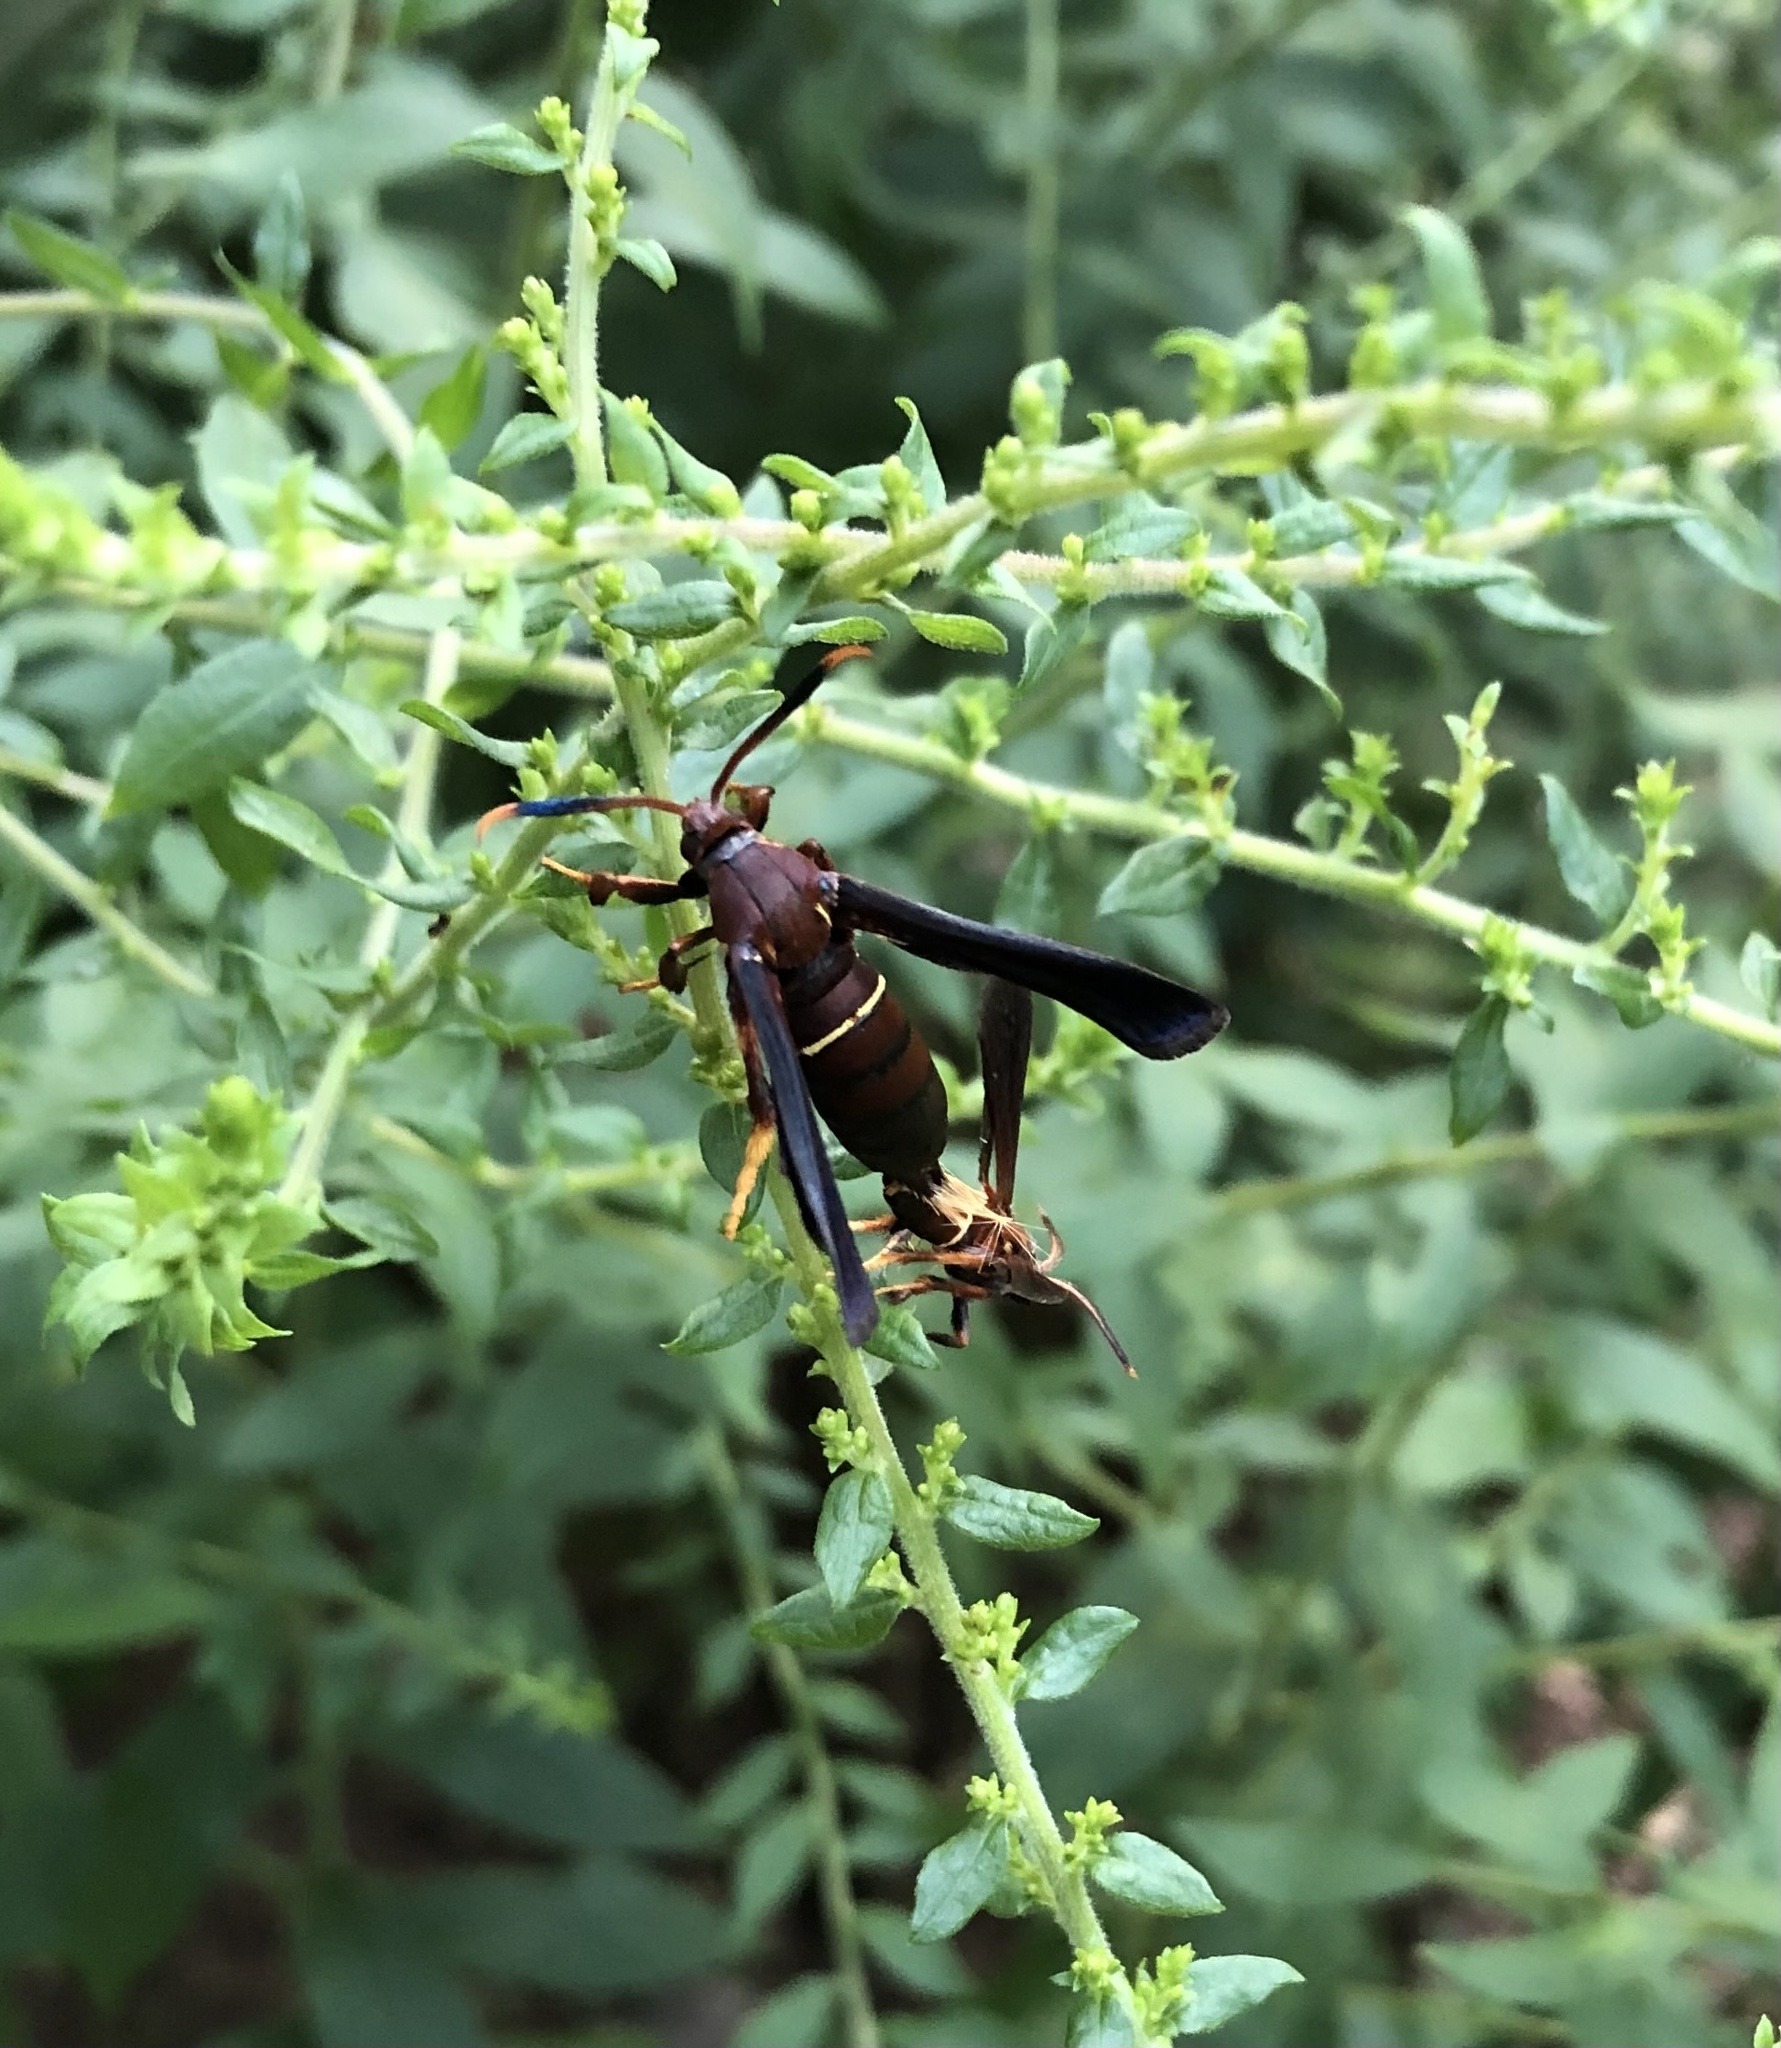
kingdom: Animalia
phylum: Arthropoda
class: Insecta
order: Lepidoptera
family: Sesiidae
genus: Vitacea
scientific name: Vitacea scepsiformis
